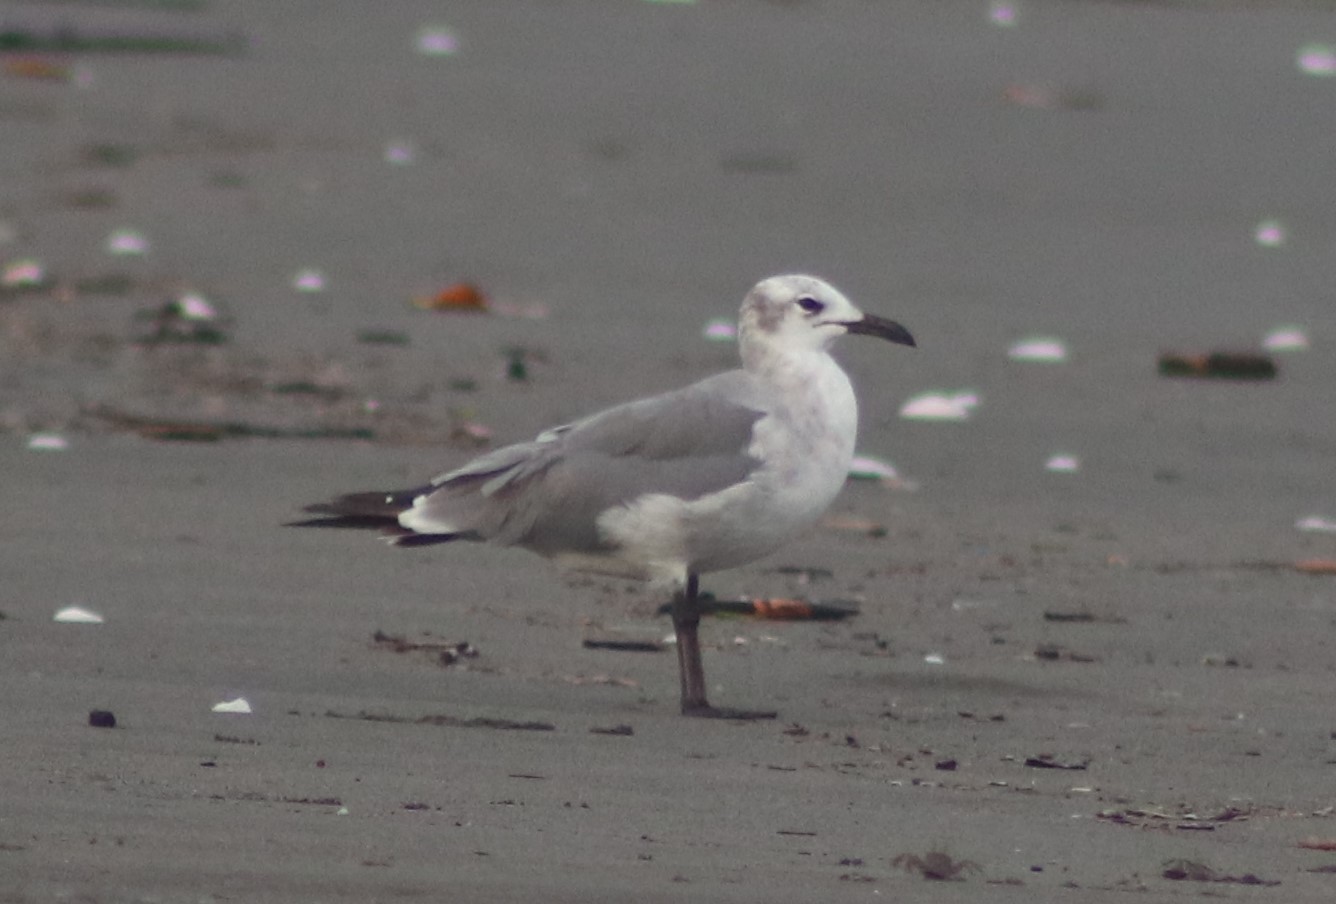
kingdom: Animalia
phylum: Chordata
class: Aves
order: Charadriiformes
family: Laridae
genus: Leucophaeus
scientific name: Leucophaeus atricilla
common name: Laughing gull
